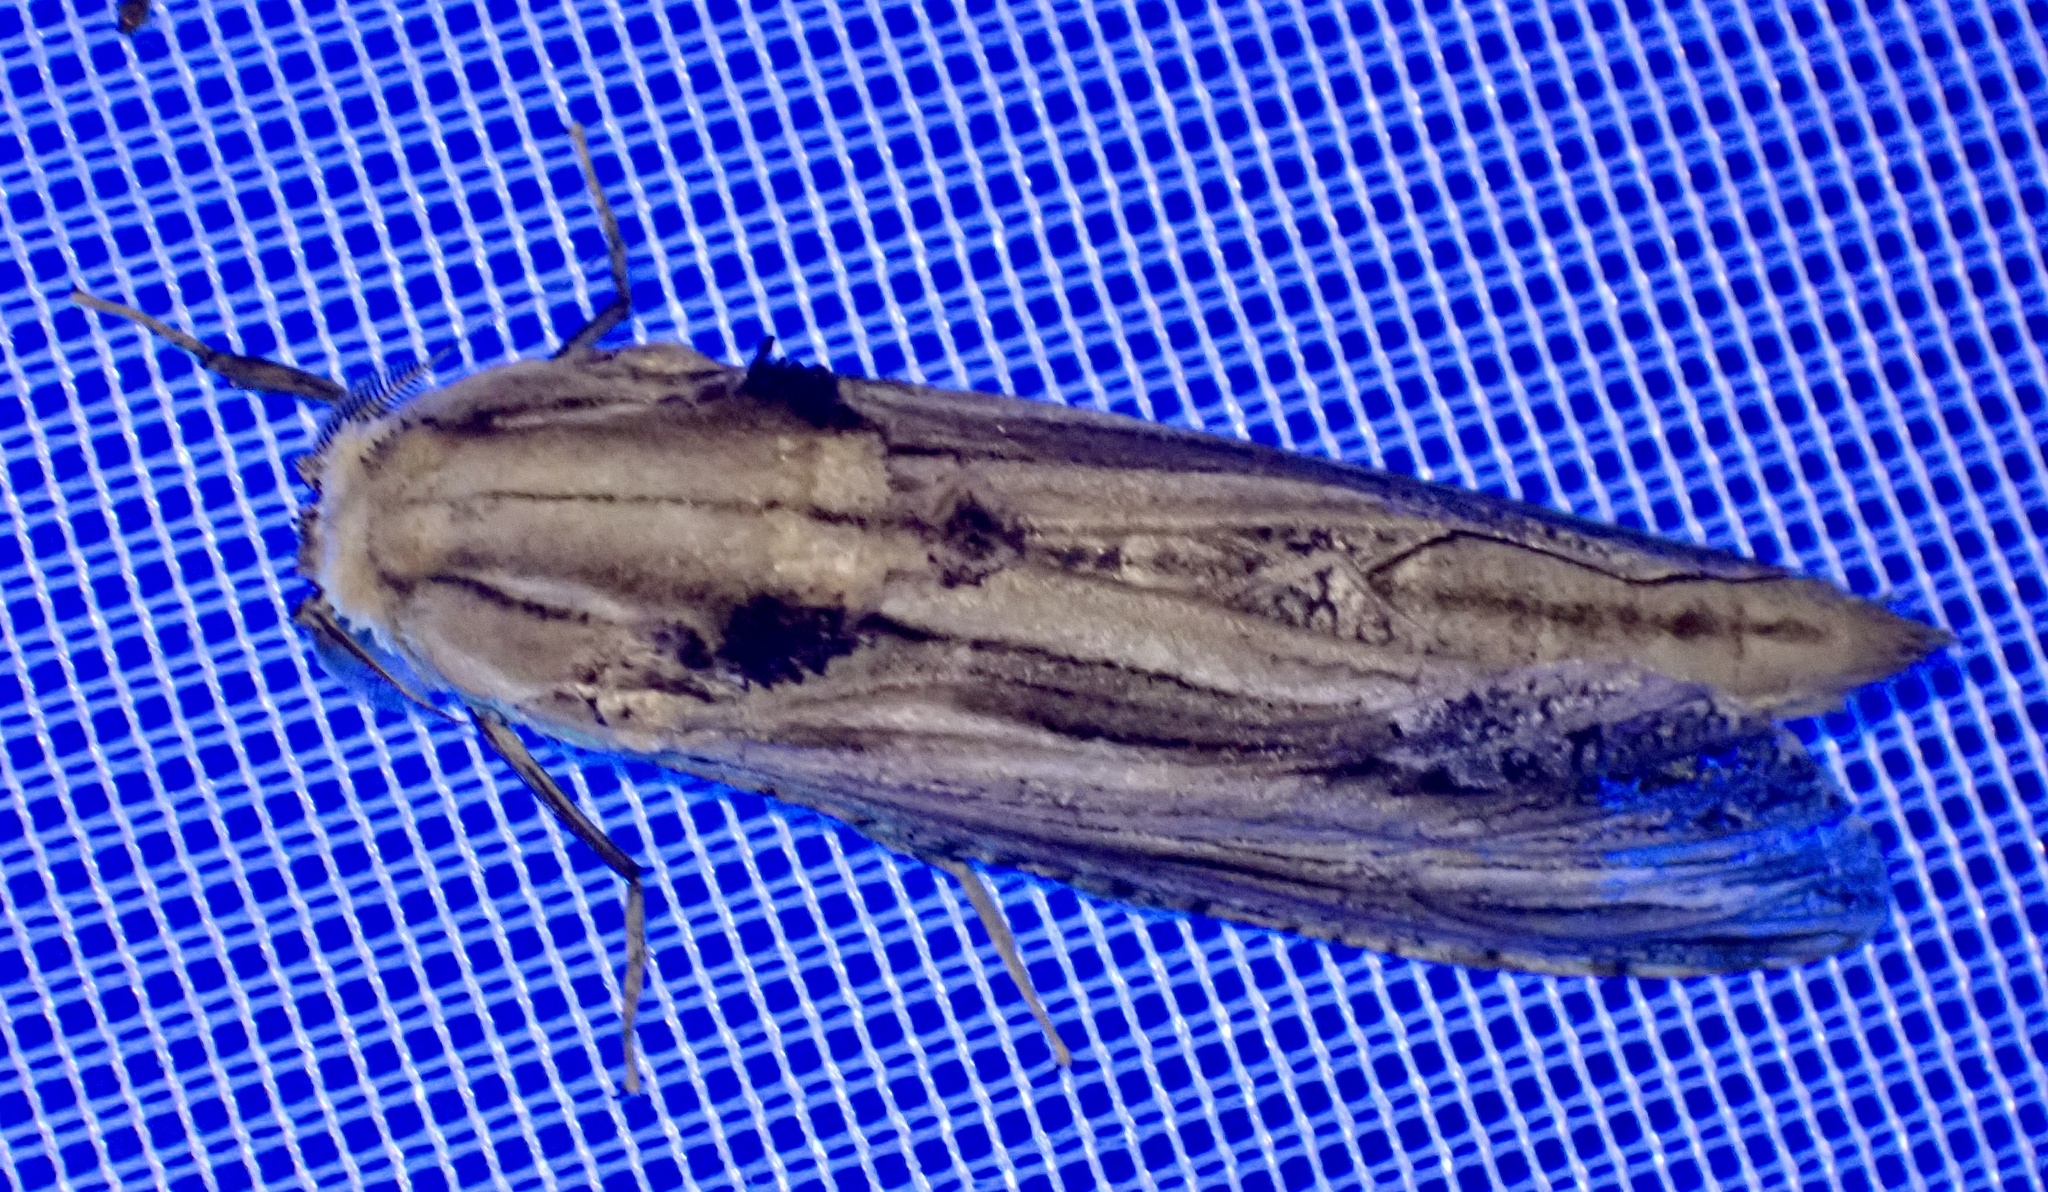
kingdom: Animalia
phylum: Arthropoda
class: Insecta
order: Lepidoptera
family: Cossidae
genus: Duomitus
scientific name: Duomitus ceramicus
